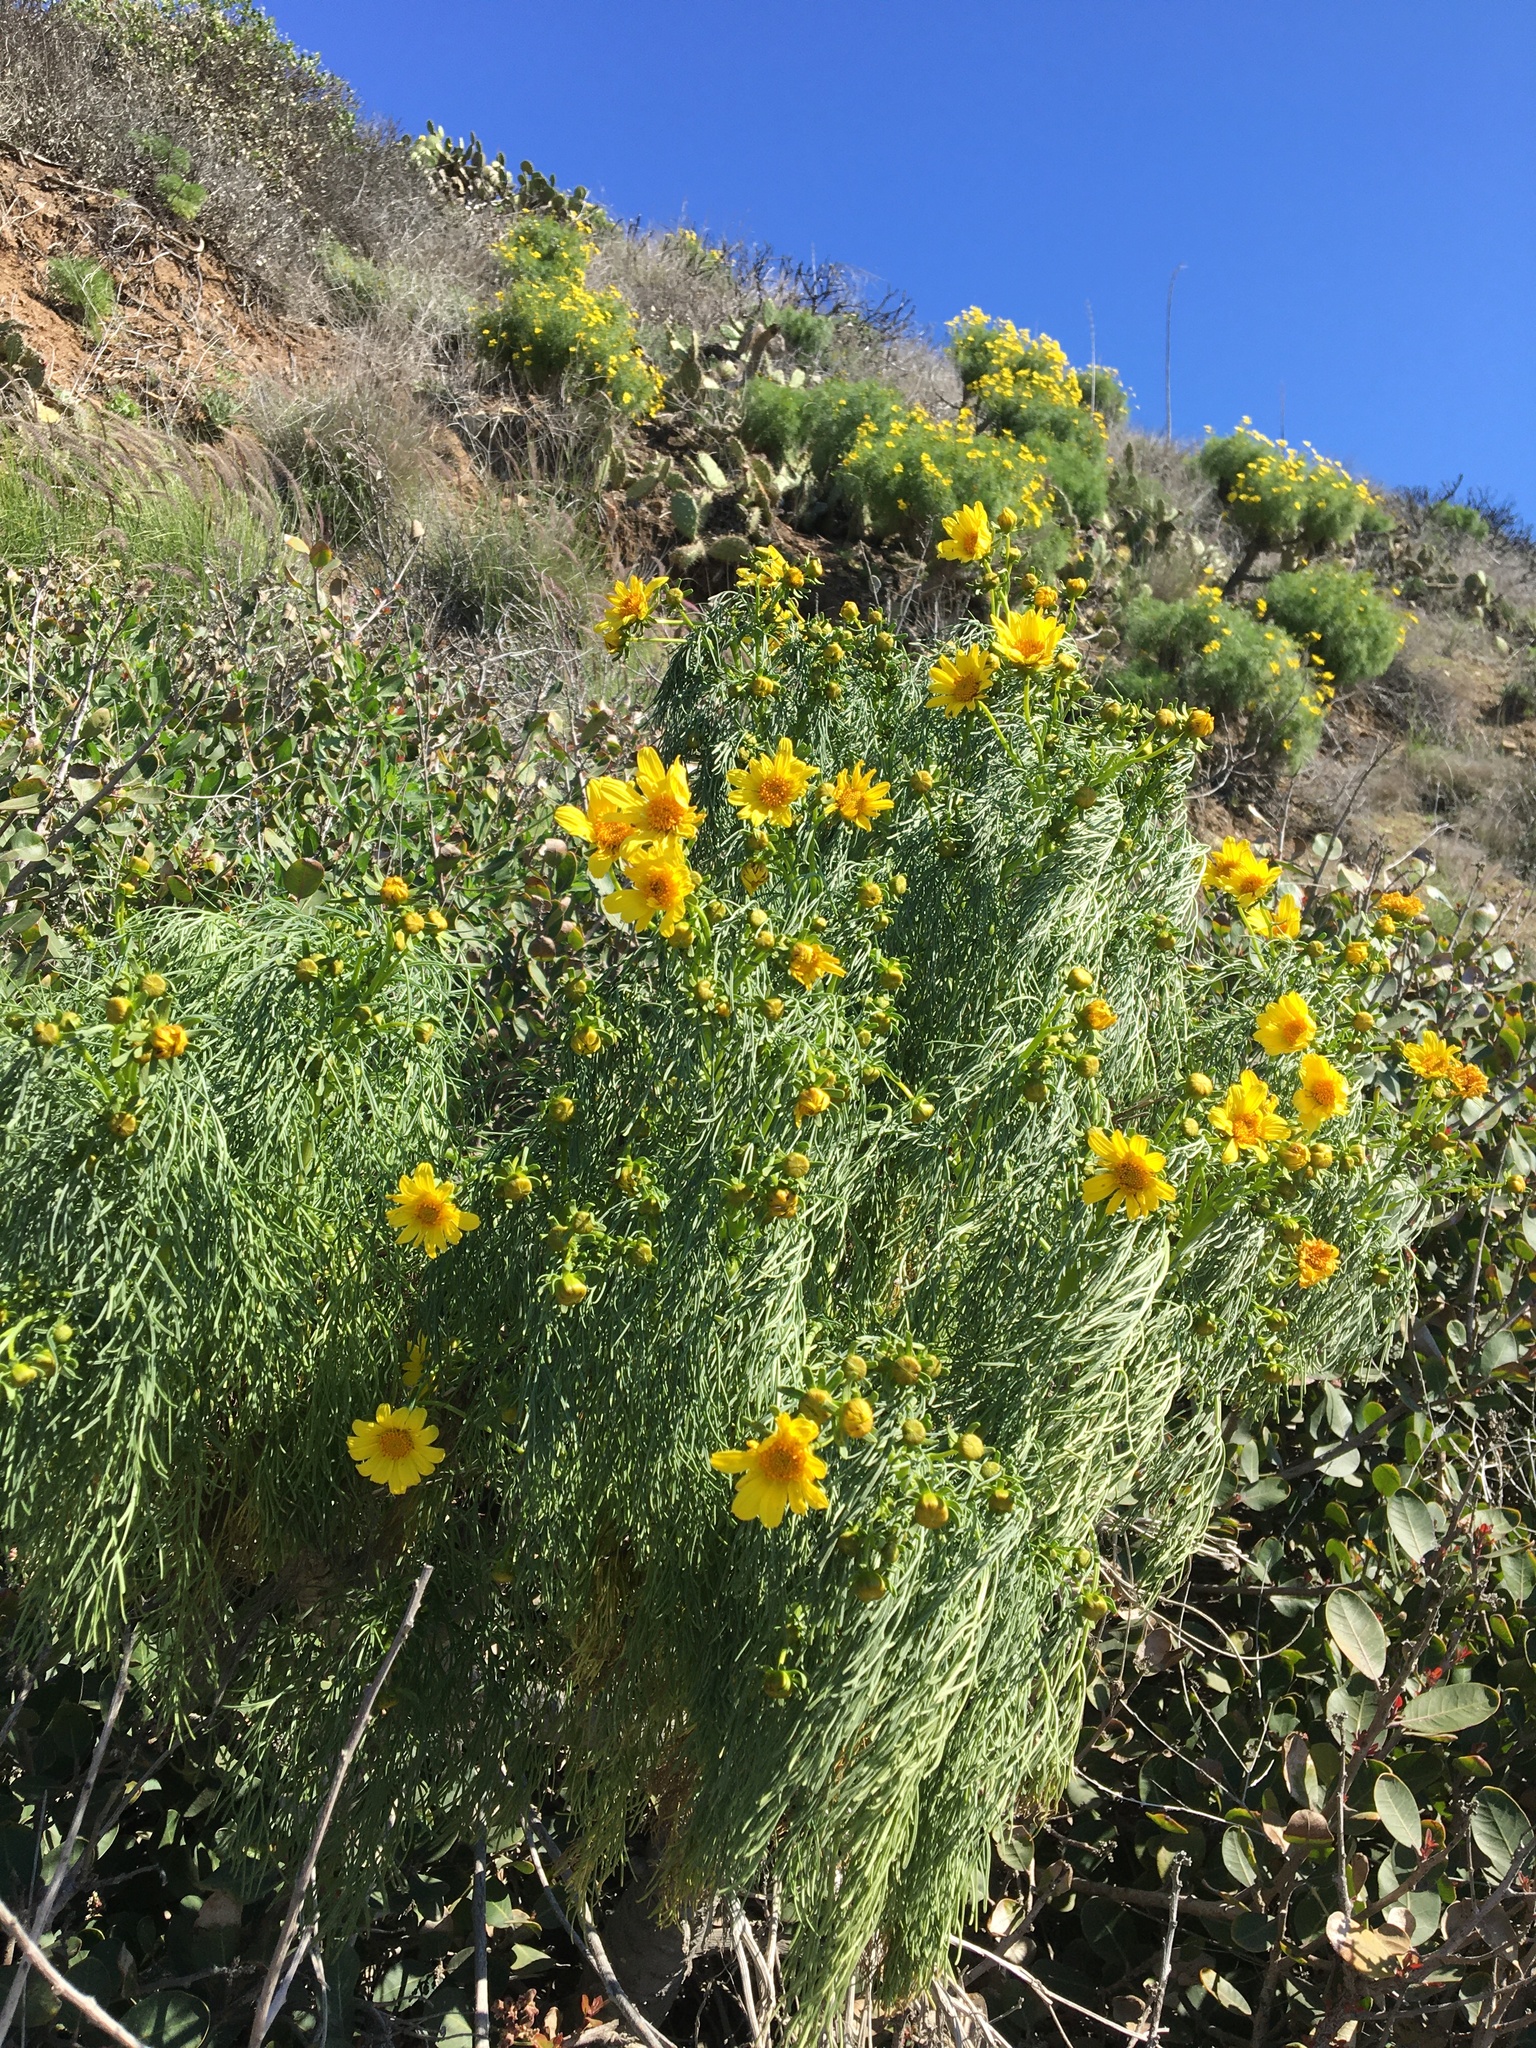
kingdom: Plantae
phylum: Tracheophyta
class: Magnoliopsida
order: Asterales
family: Asteraceae
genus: Coreopsis
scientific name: Coreopsis gigantea
